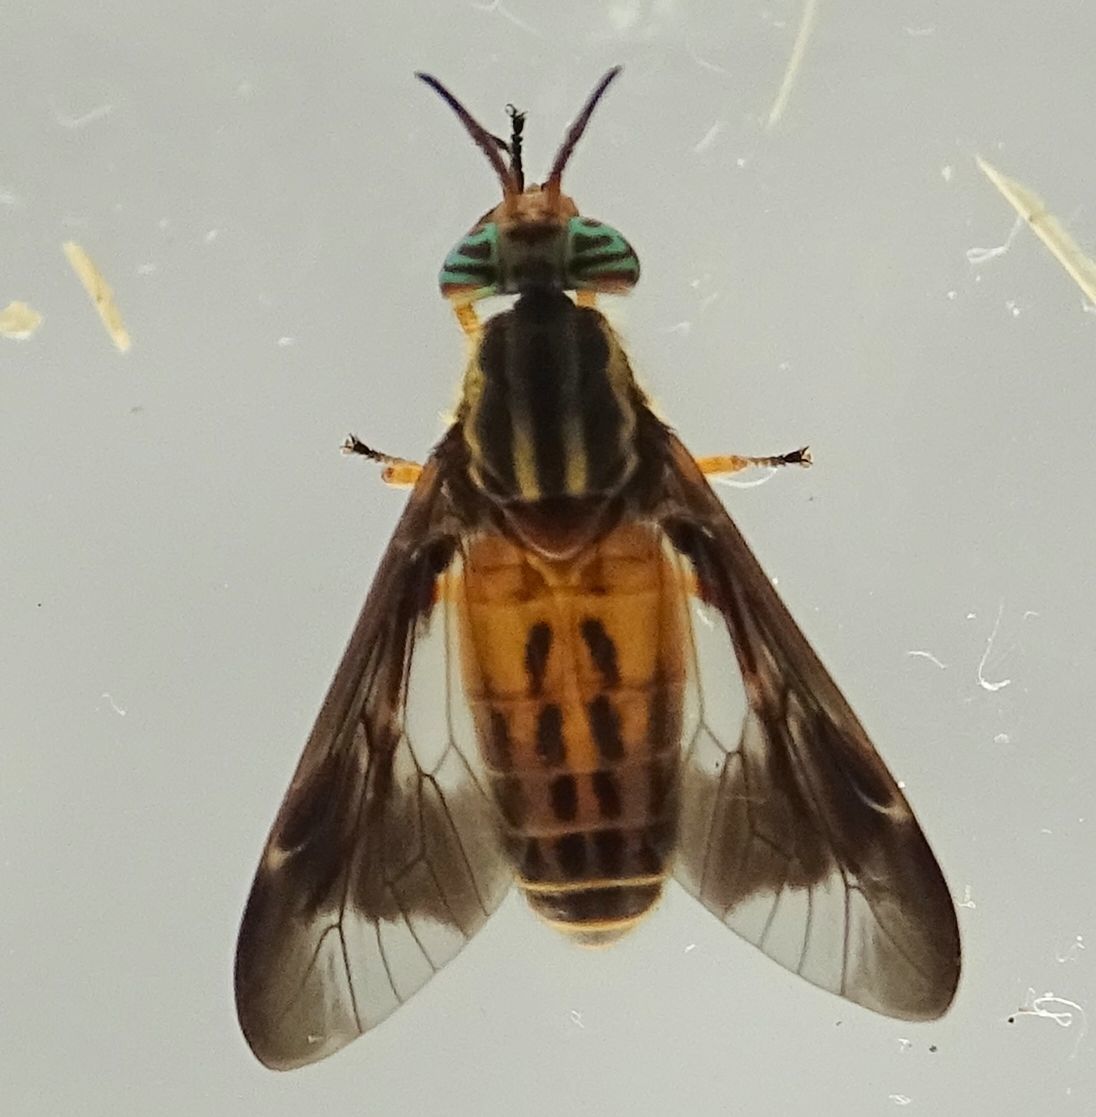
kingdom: Animalia
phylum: Arthropoda
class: Insecta
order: Diptera
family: Tabanidae
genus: Chrysops
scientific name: Chrysops vittatus
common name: Striped deer fly
